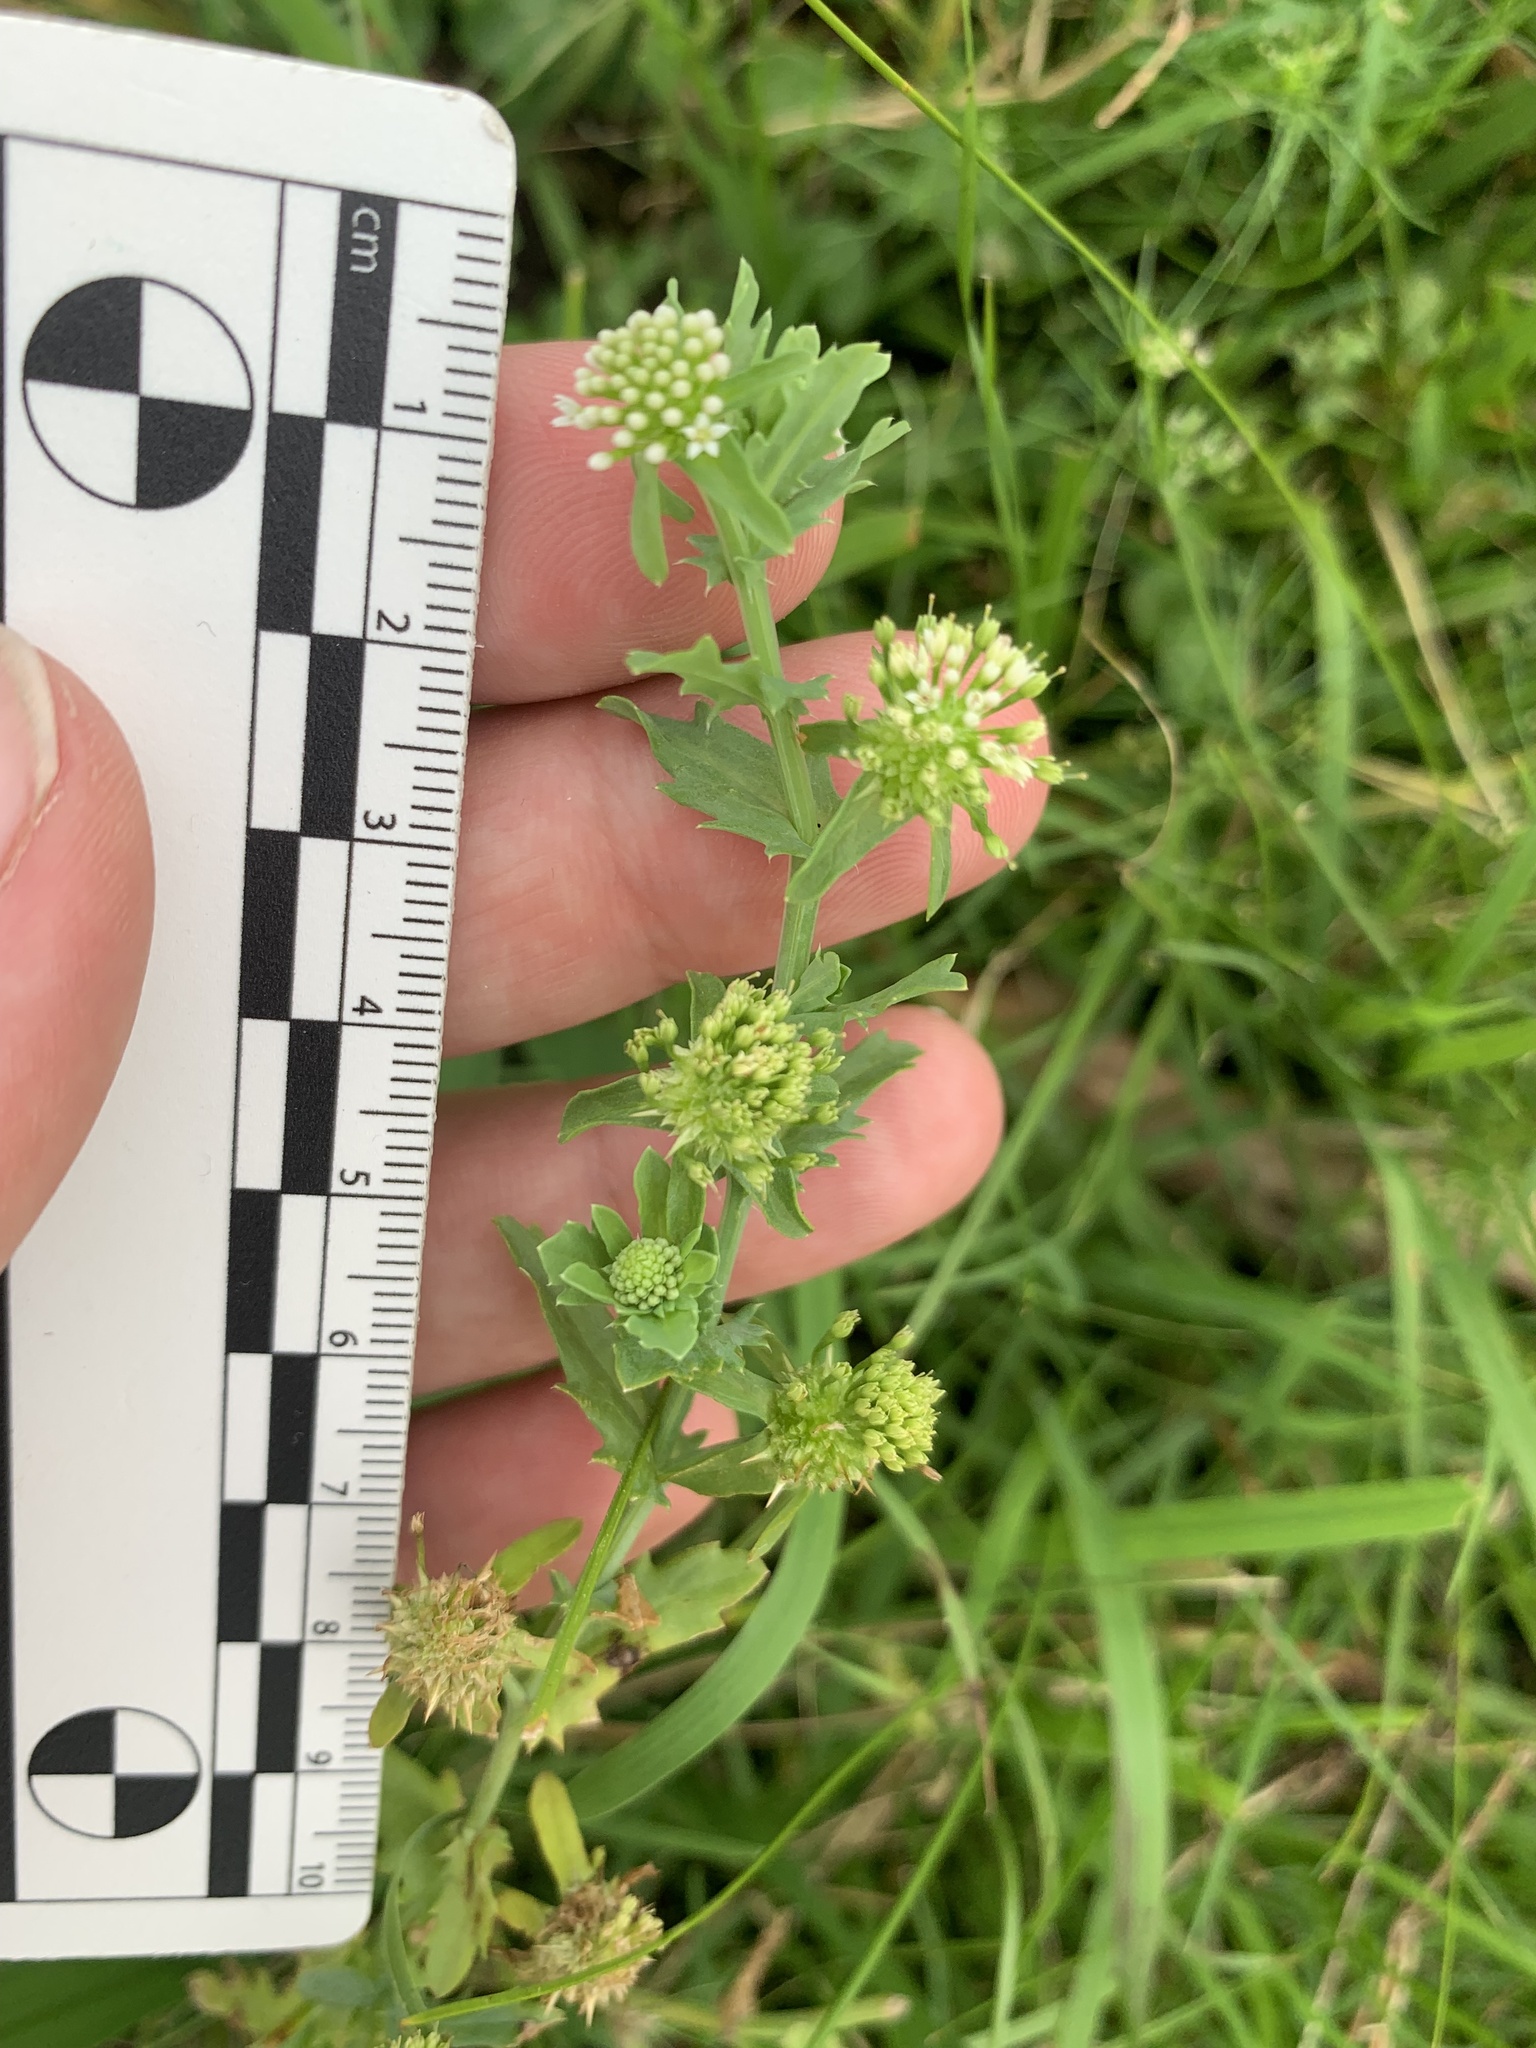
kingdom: Plantae
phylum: Tracheophyta
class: Magnoliopsida
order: Asterales
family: Calyceraceae
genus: Acicarpha
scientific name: Acicarpha tribuloides
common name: Madam gorgon
